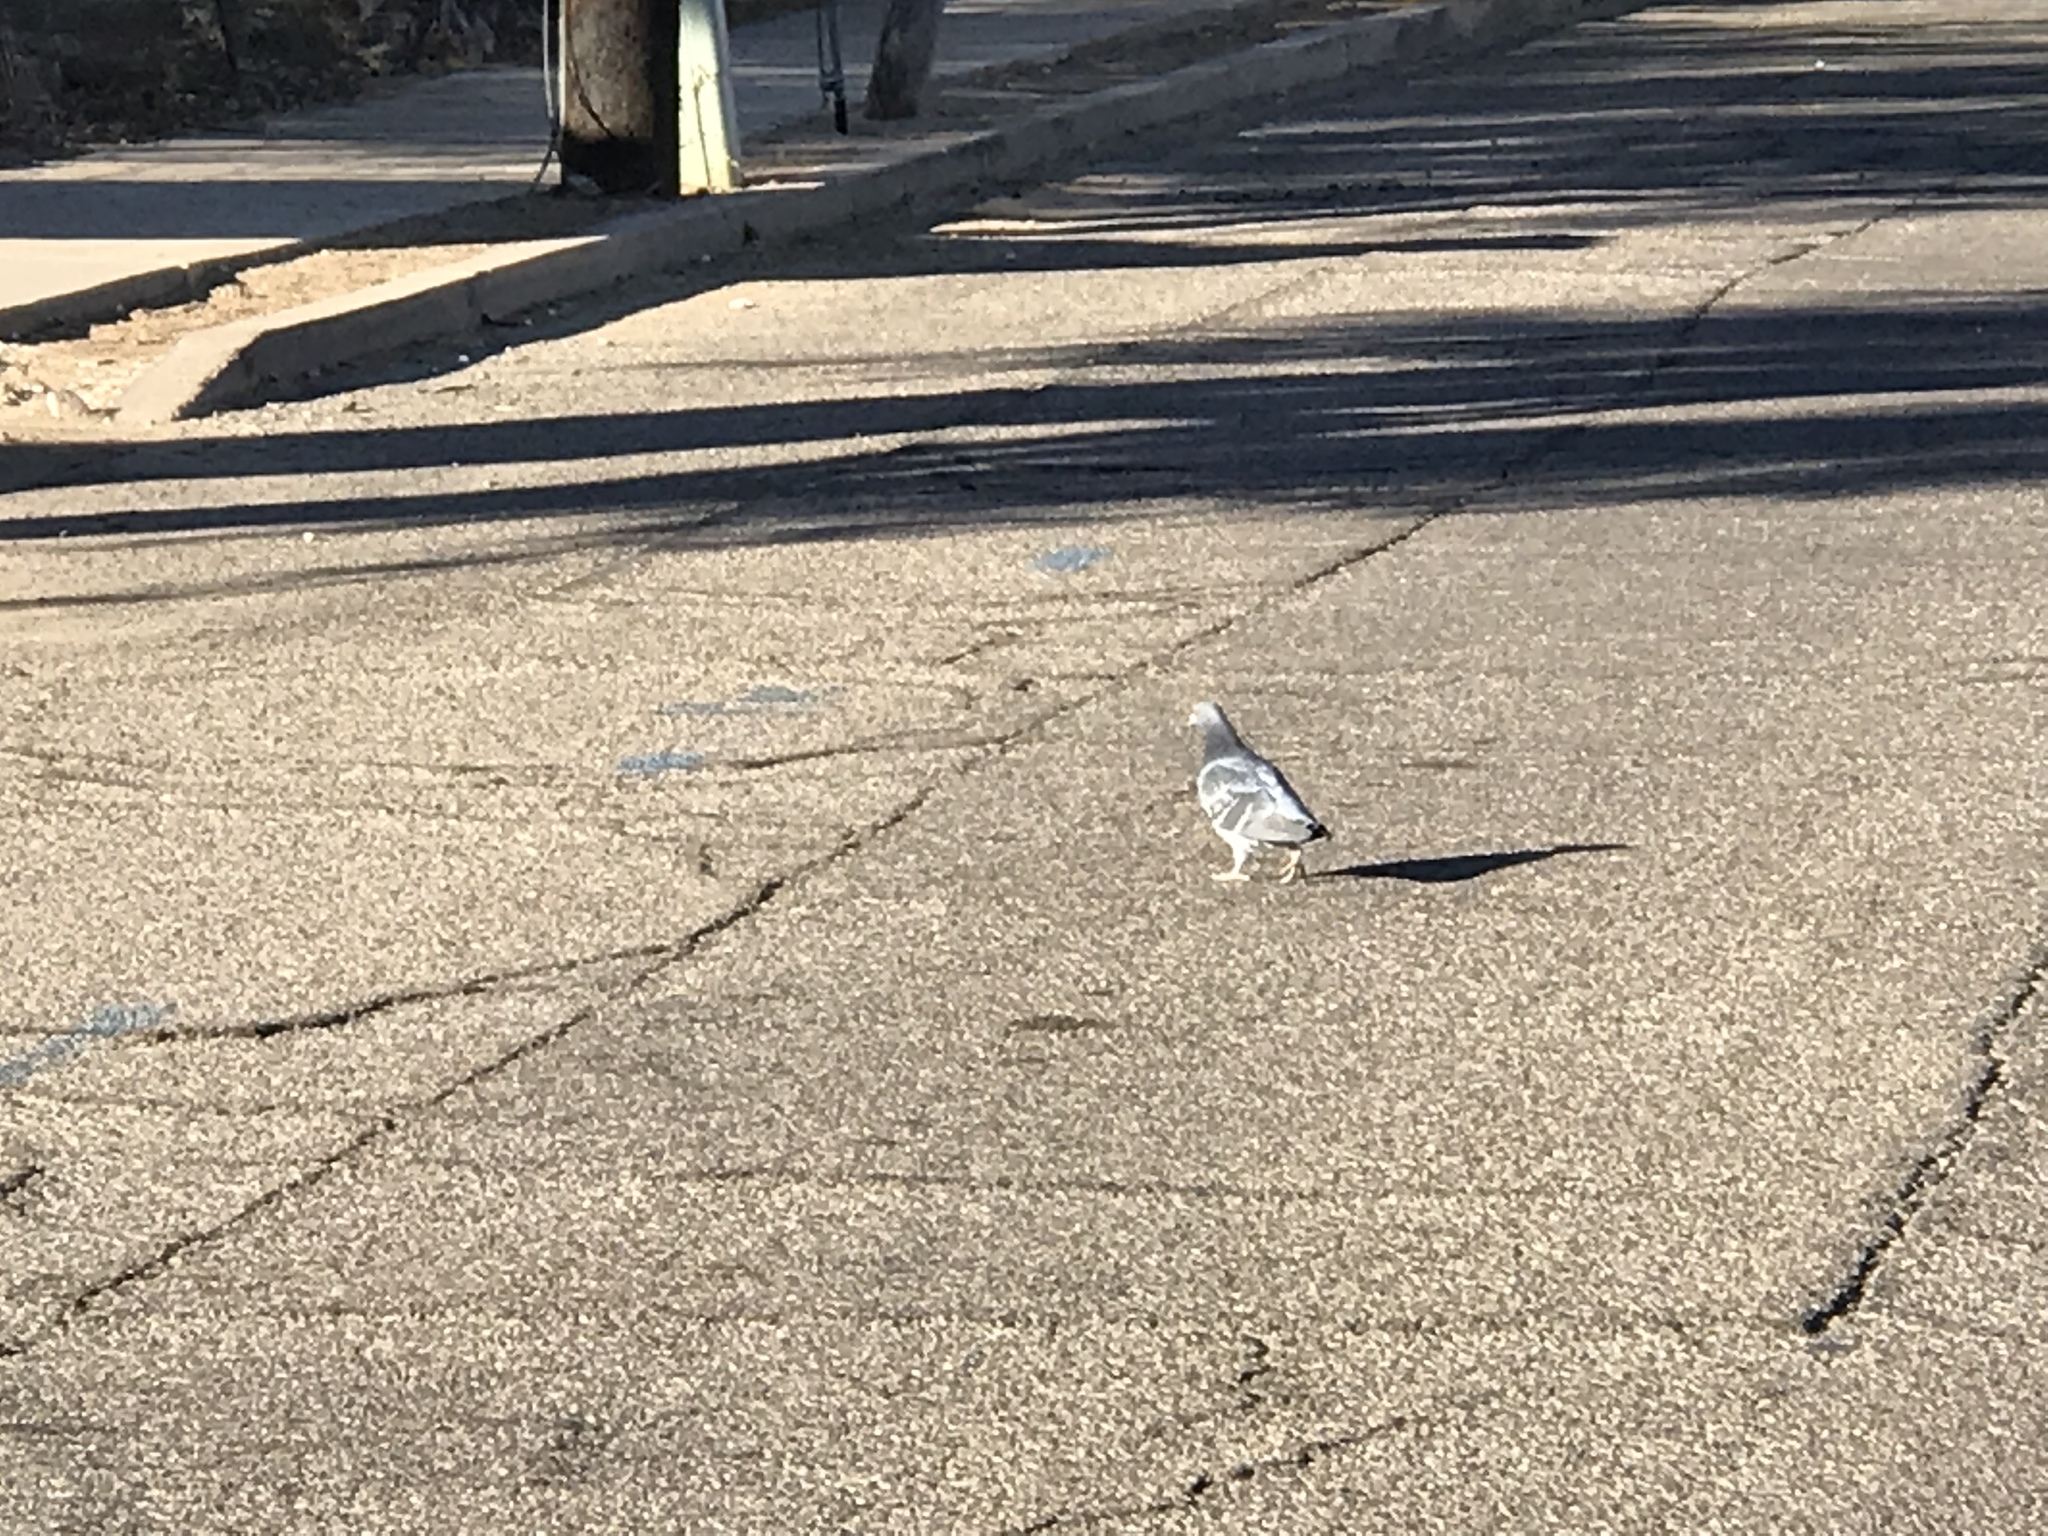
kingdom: Animalia
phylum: Chordata
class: Aves
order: Columbiformes
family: Columbidae
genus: Columba
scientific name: Columba livia
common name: Rock pigeon
